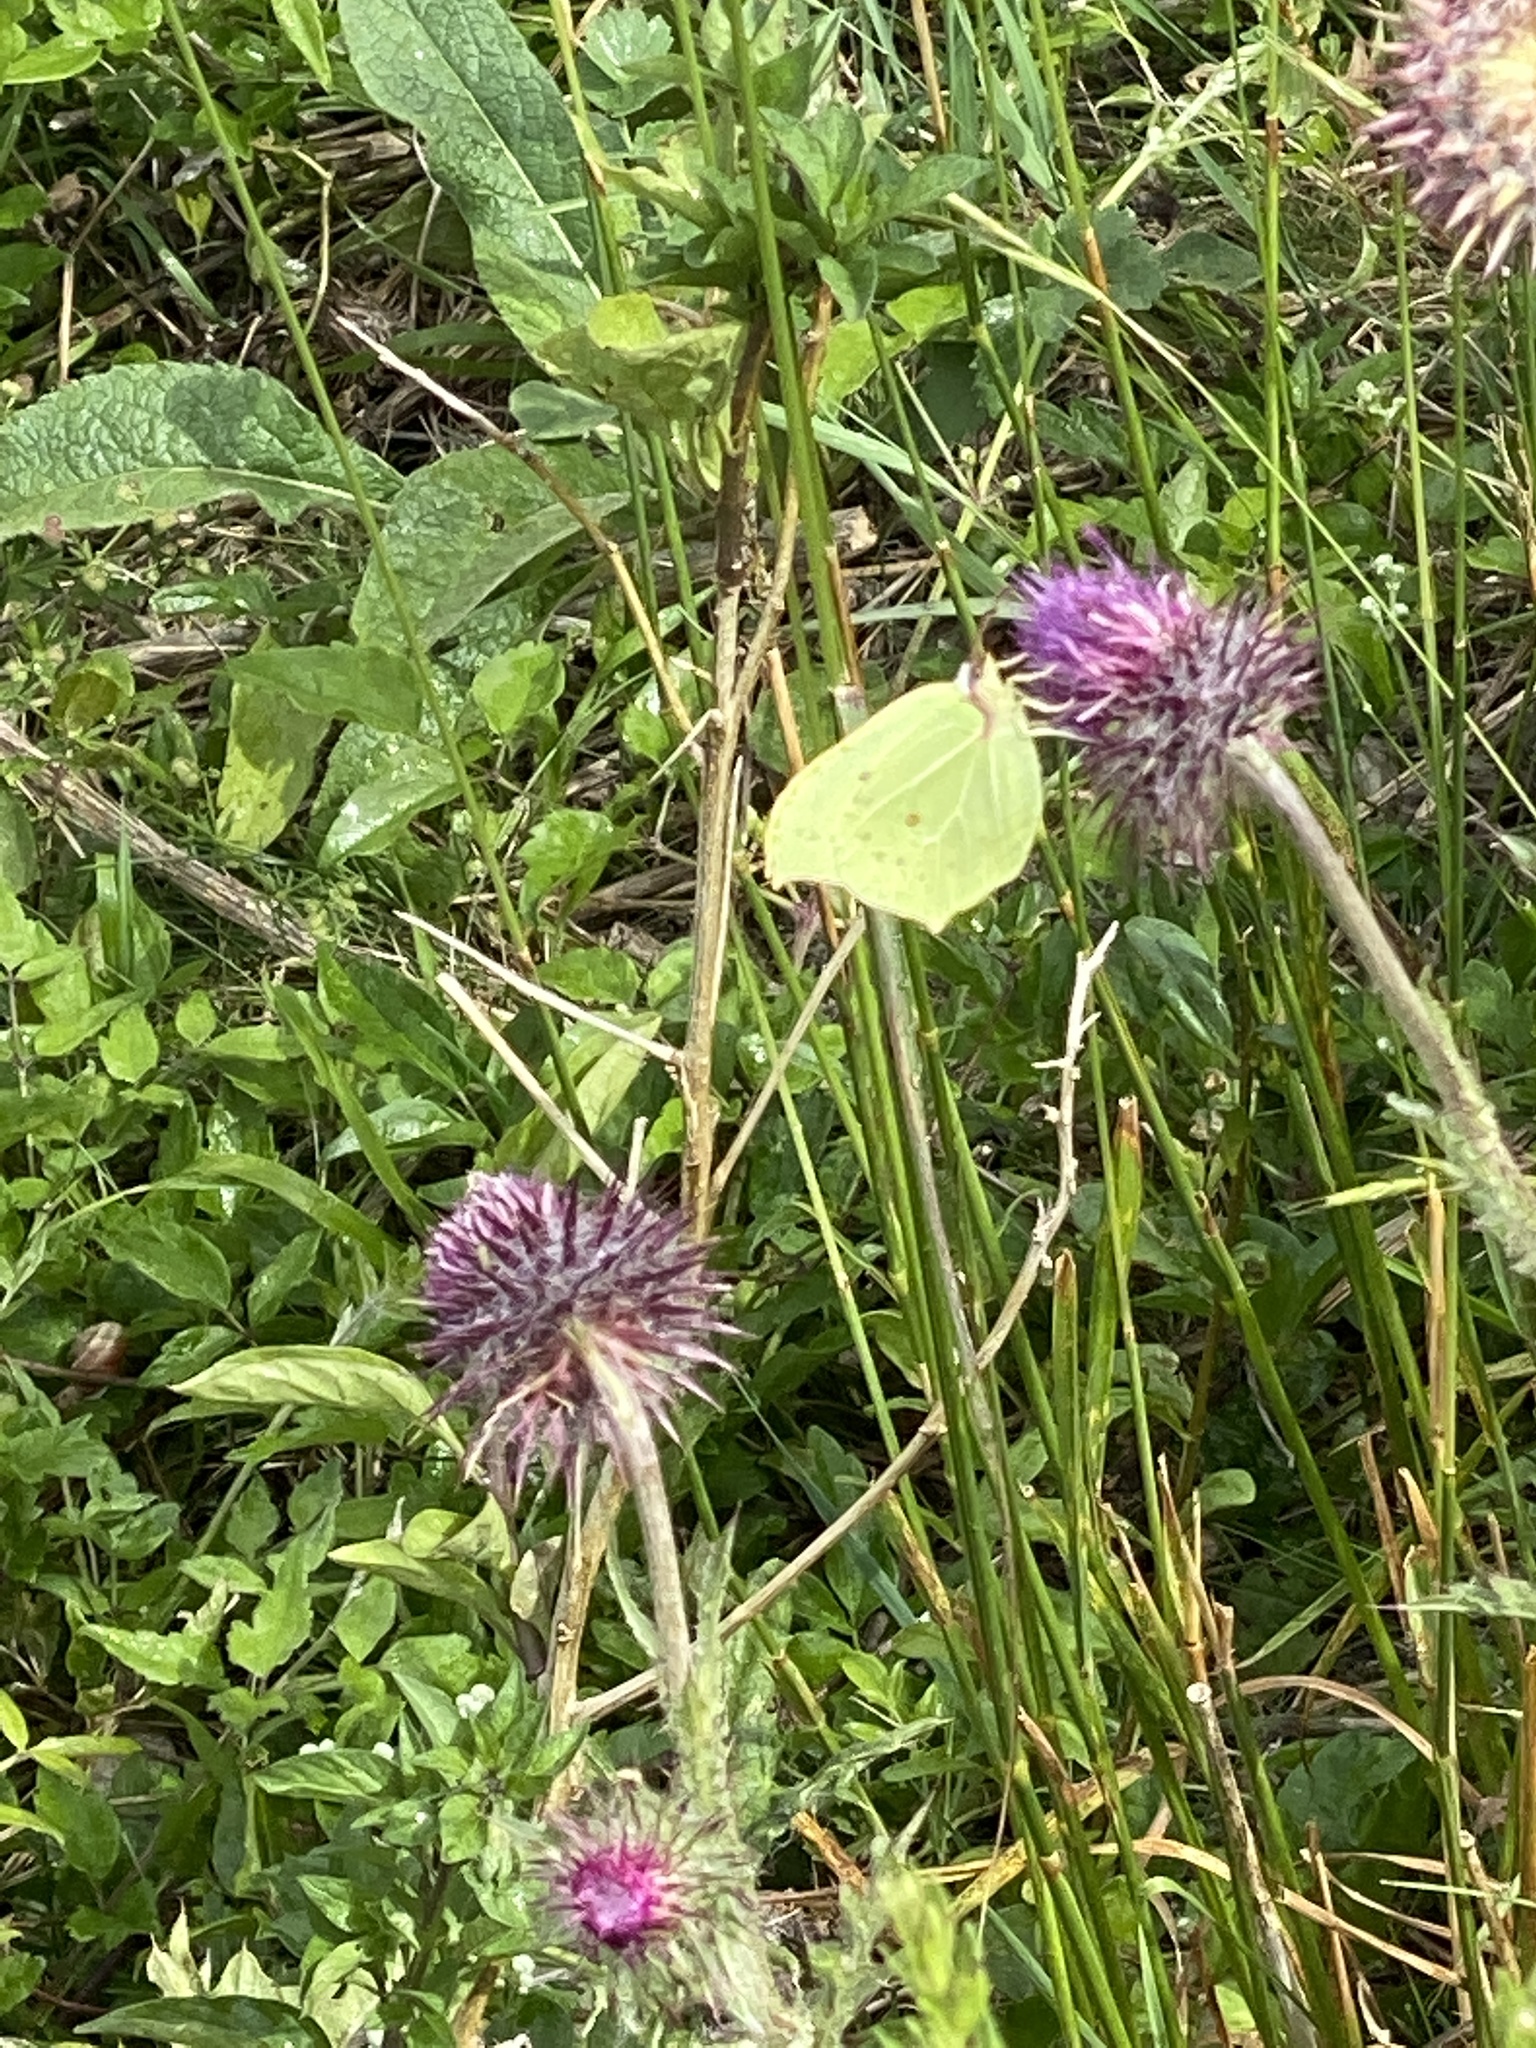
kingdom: Animalia
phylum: Arthropoda
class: Insecta
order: Lepidoptera
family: Pieridae
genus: Gonepteryx
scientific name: Gonepteryx rhamni
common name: Brimstone
